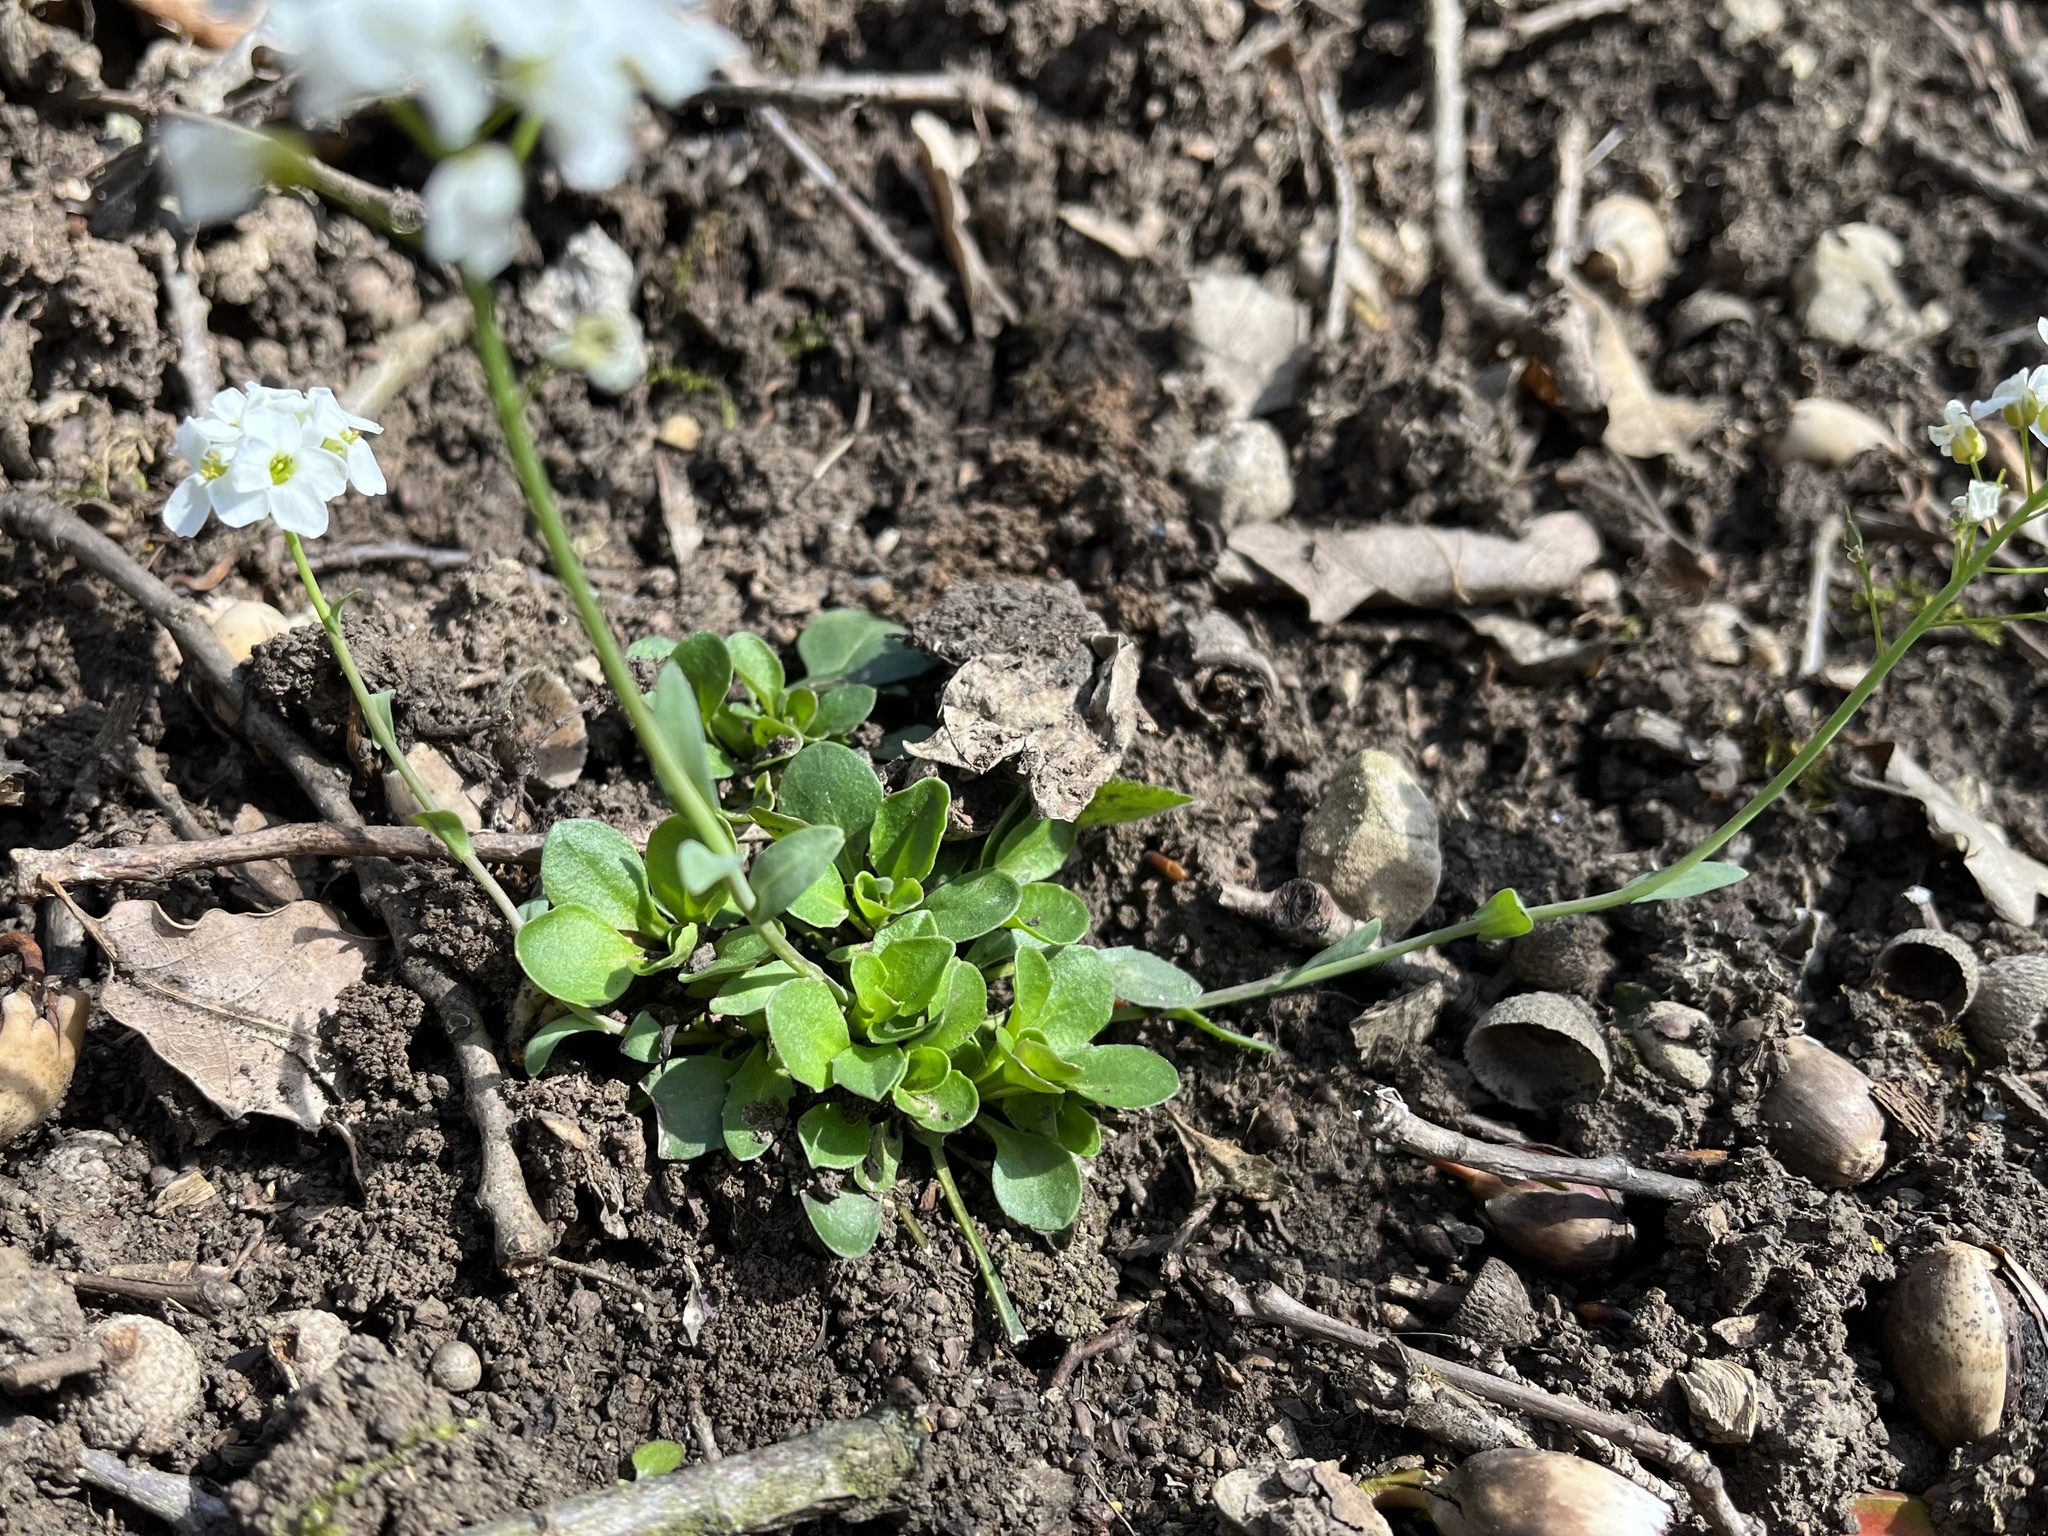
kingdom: Plantae
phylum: Tracheophyta
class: Magnoliopsida
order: Brassicales
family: Brassicaceae
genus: Noccaea
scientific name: Noccaea montana
